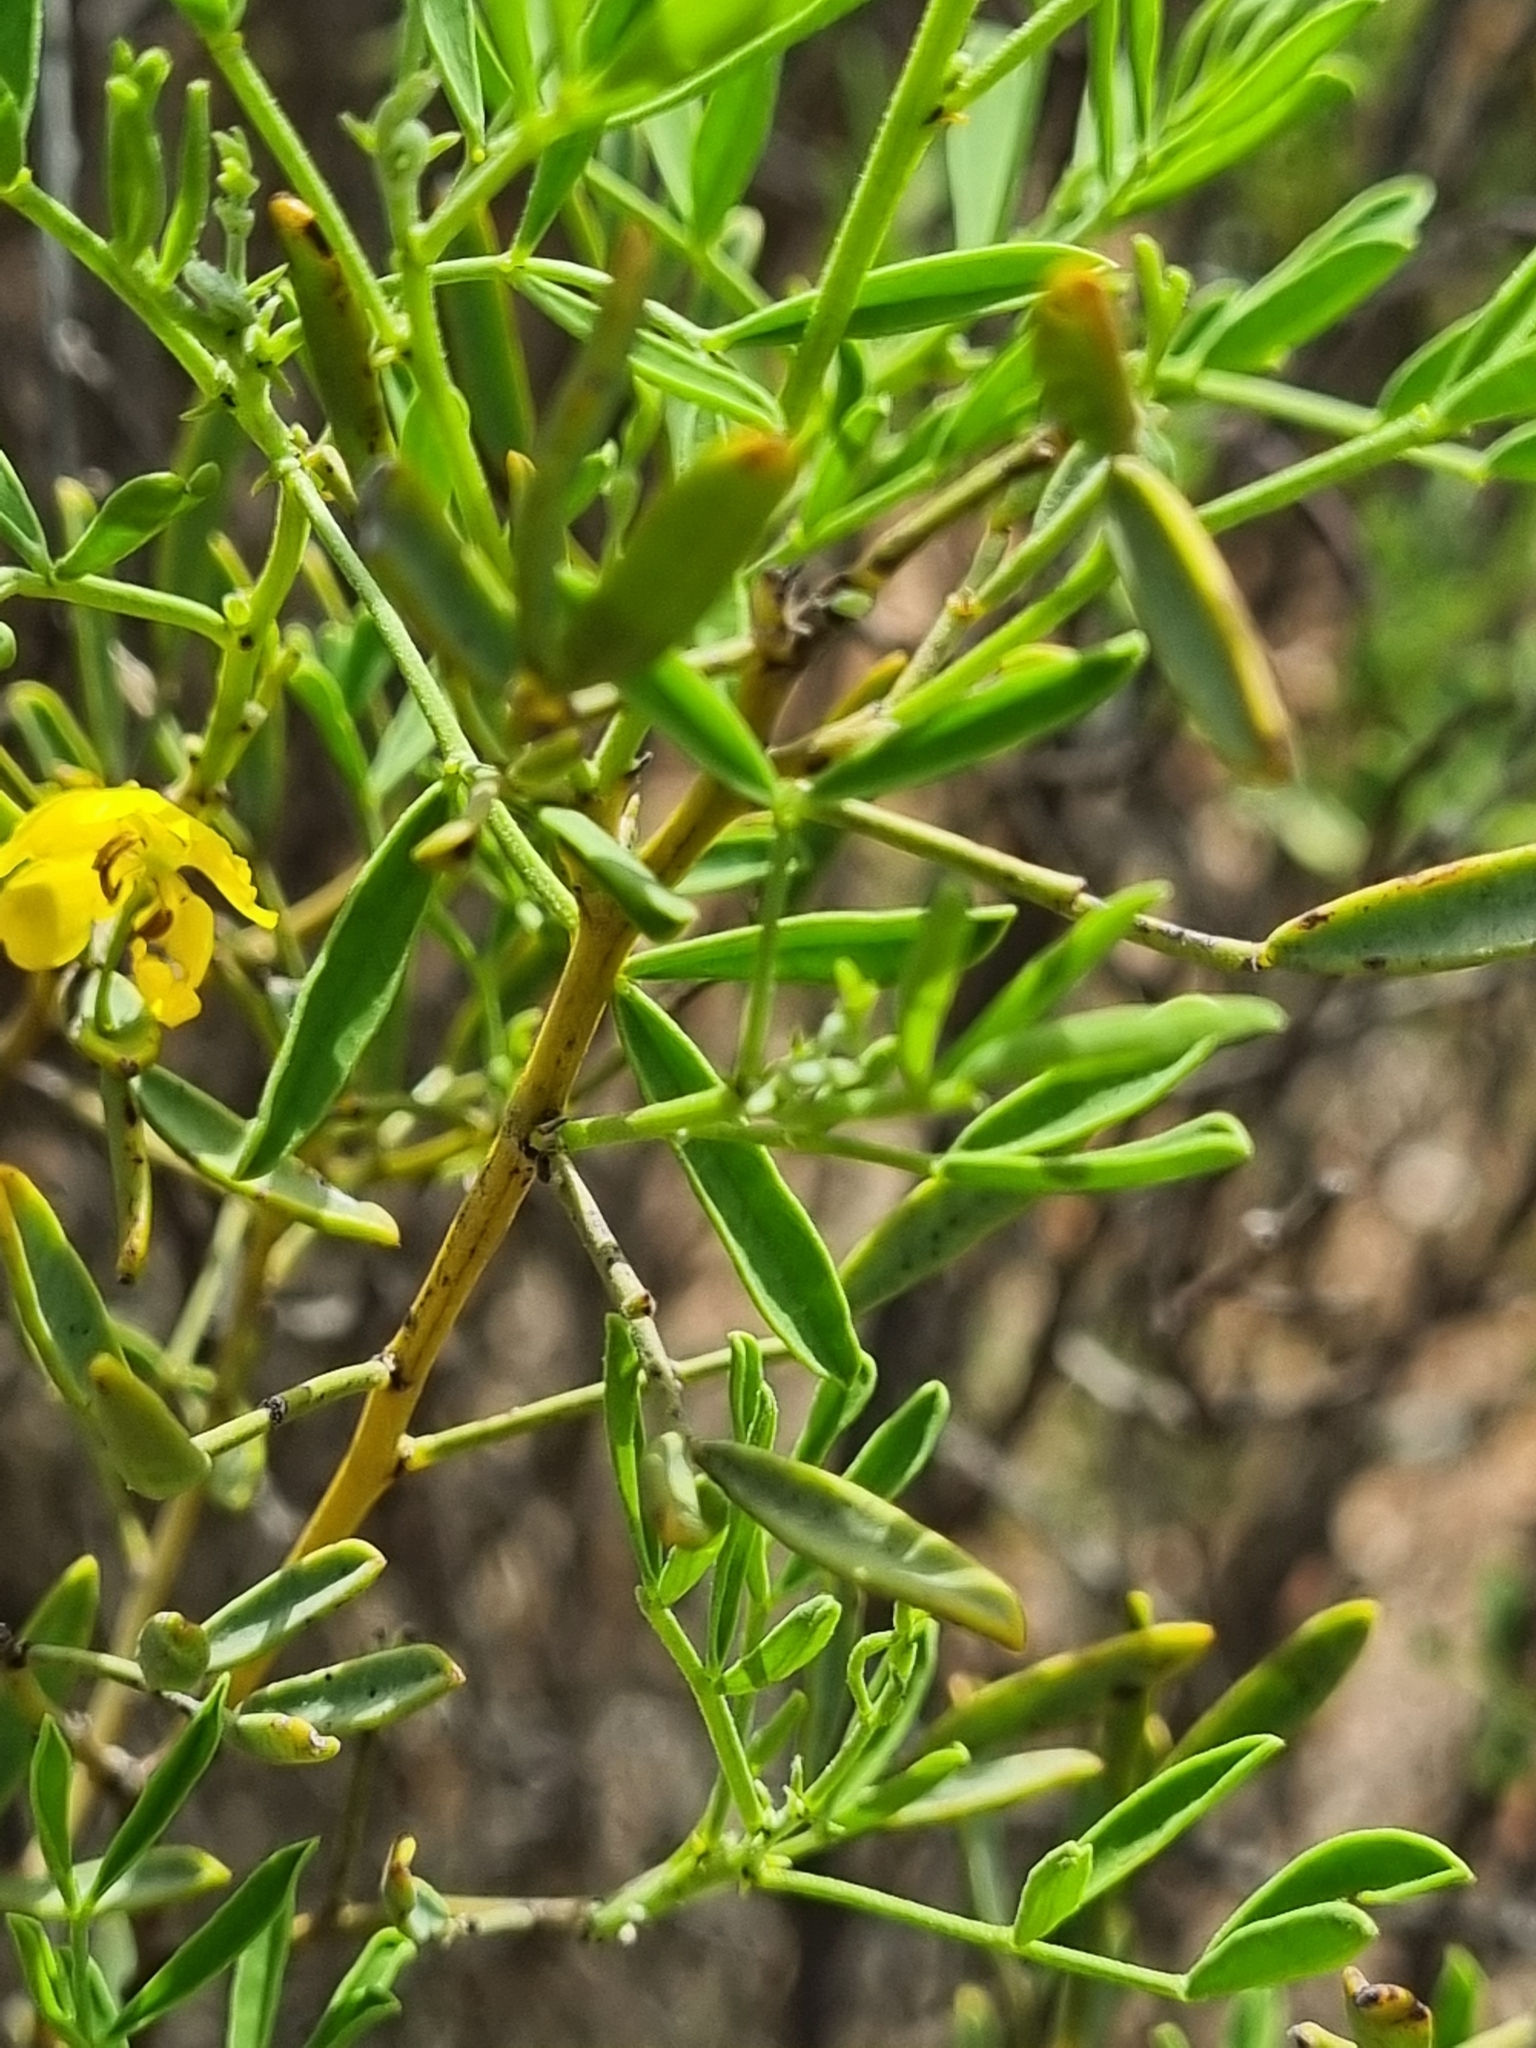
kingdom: Plantae
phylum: Tracheophyta
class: Magnoliopsida
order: Fabales
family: Fabaceae
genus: Senna
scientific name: Senna artemisioides
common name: Burnt-leaved acacia
